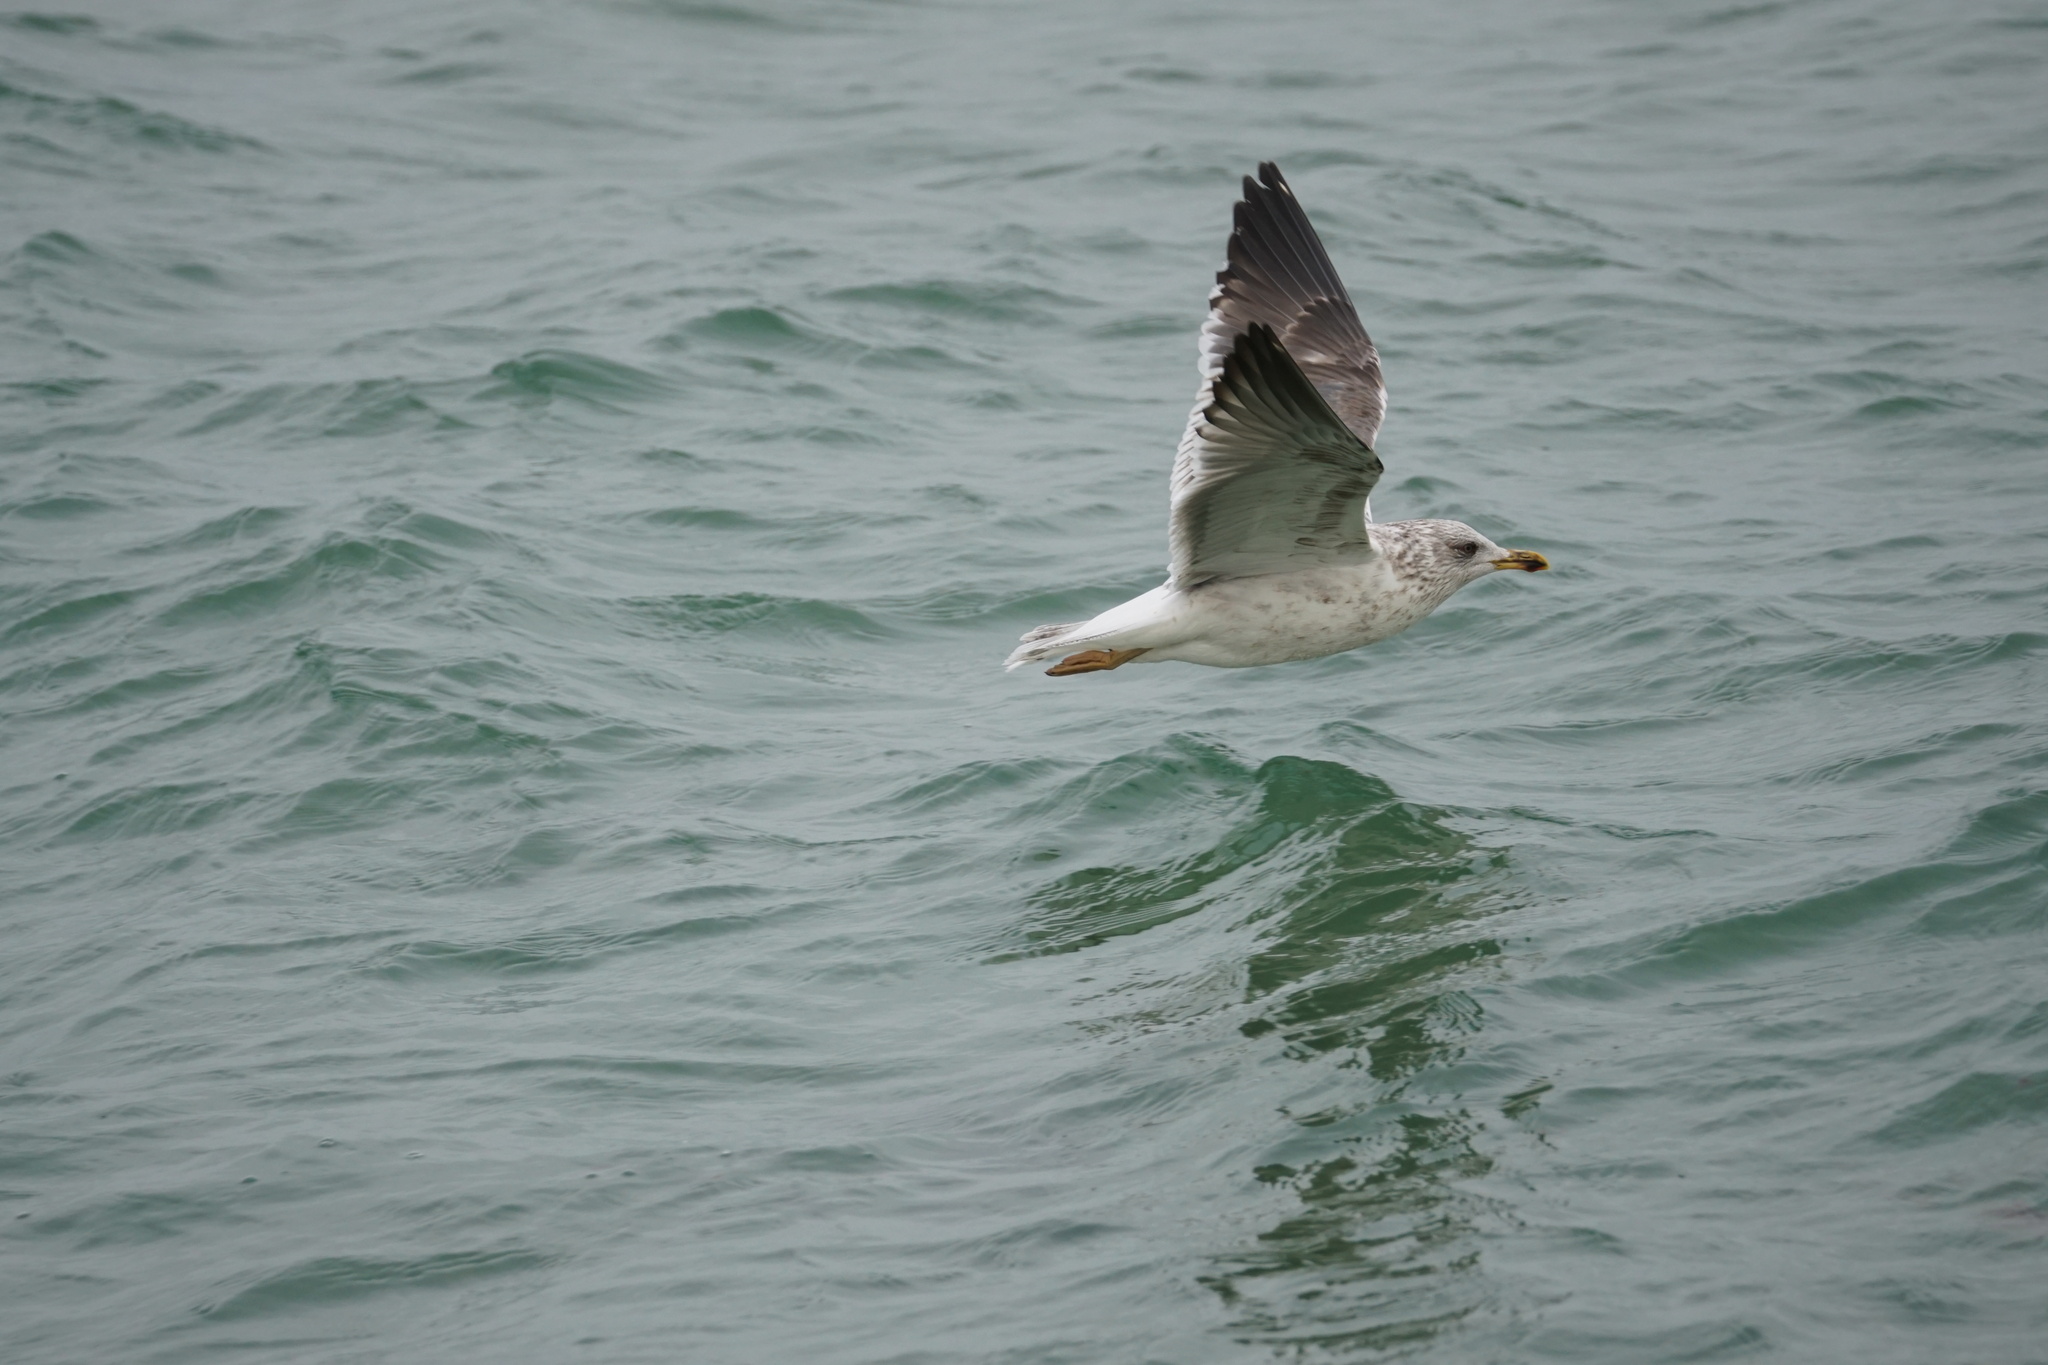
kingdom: Animalia
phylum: Chordata
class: Aves
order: Charadriiformes
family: Laridae
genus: Larus
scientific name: Larus fuscus
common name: Lesser black-backed gull
